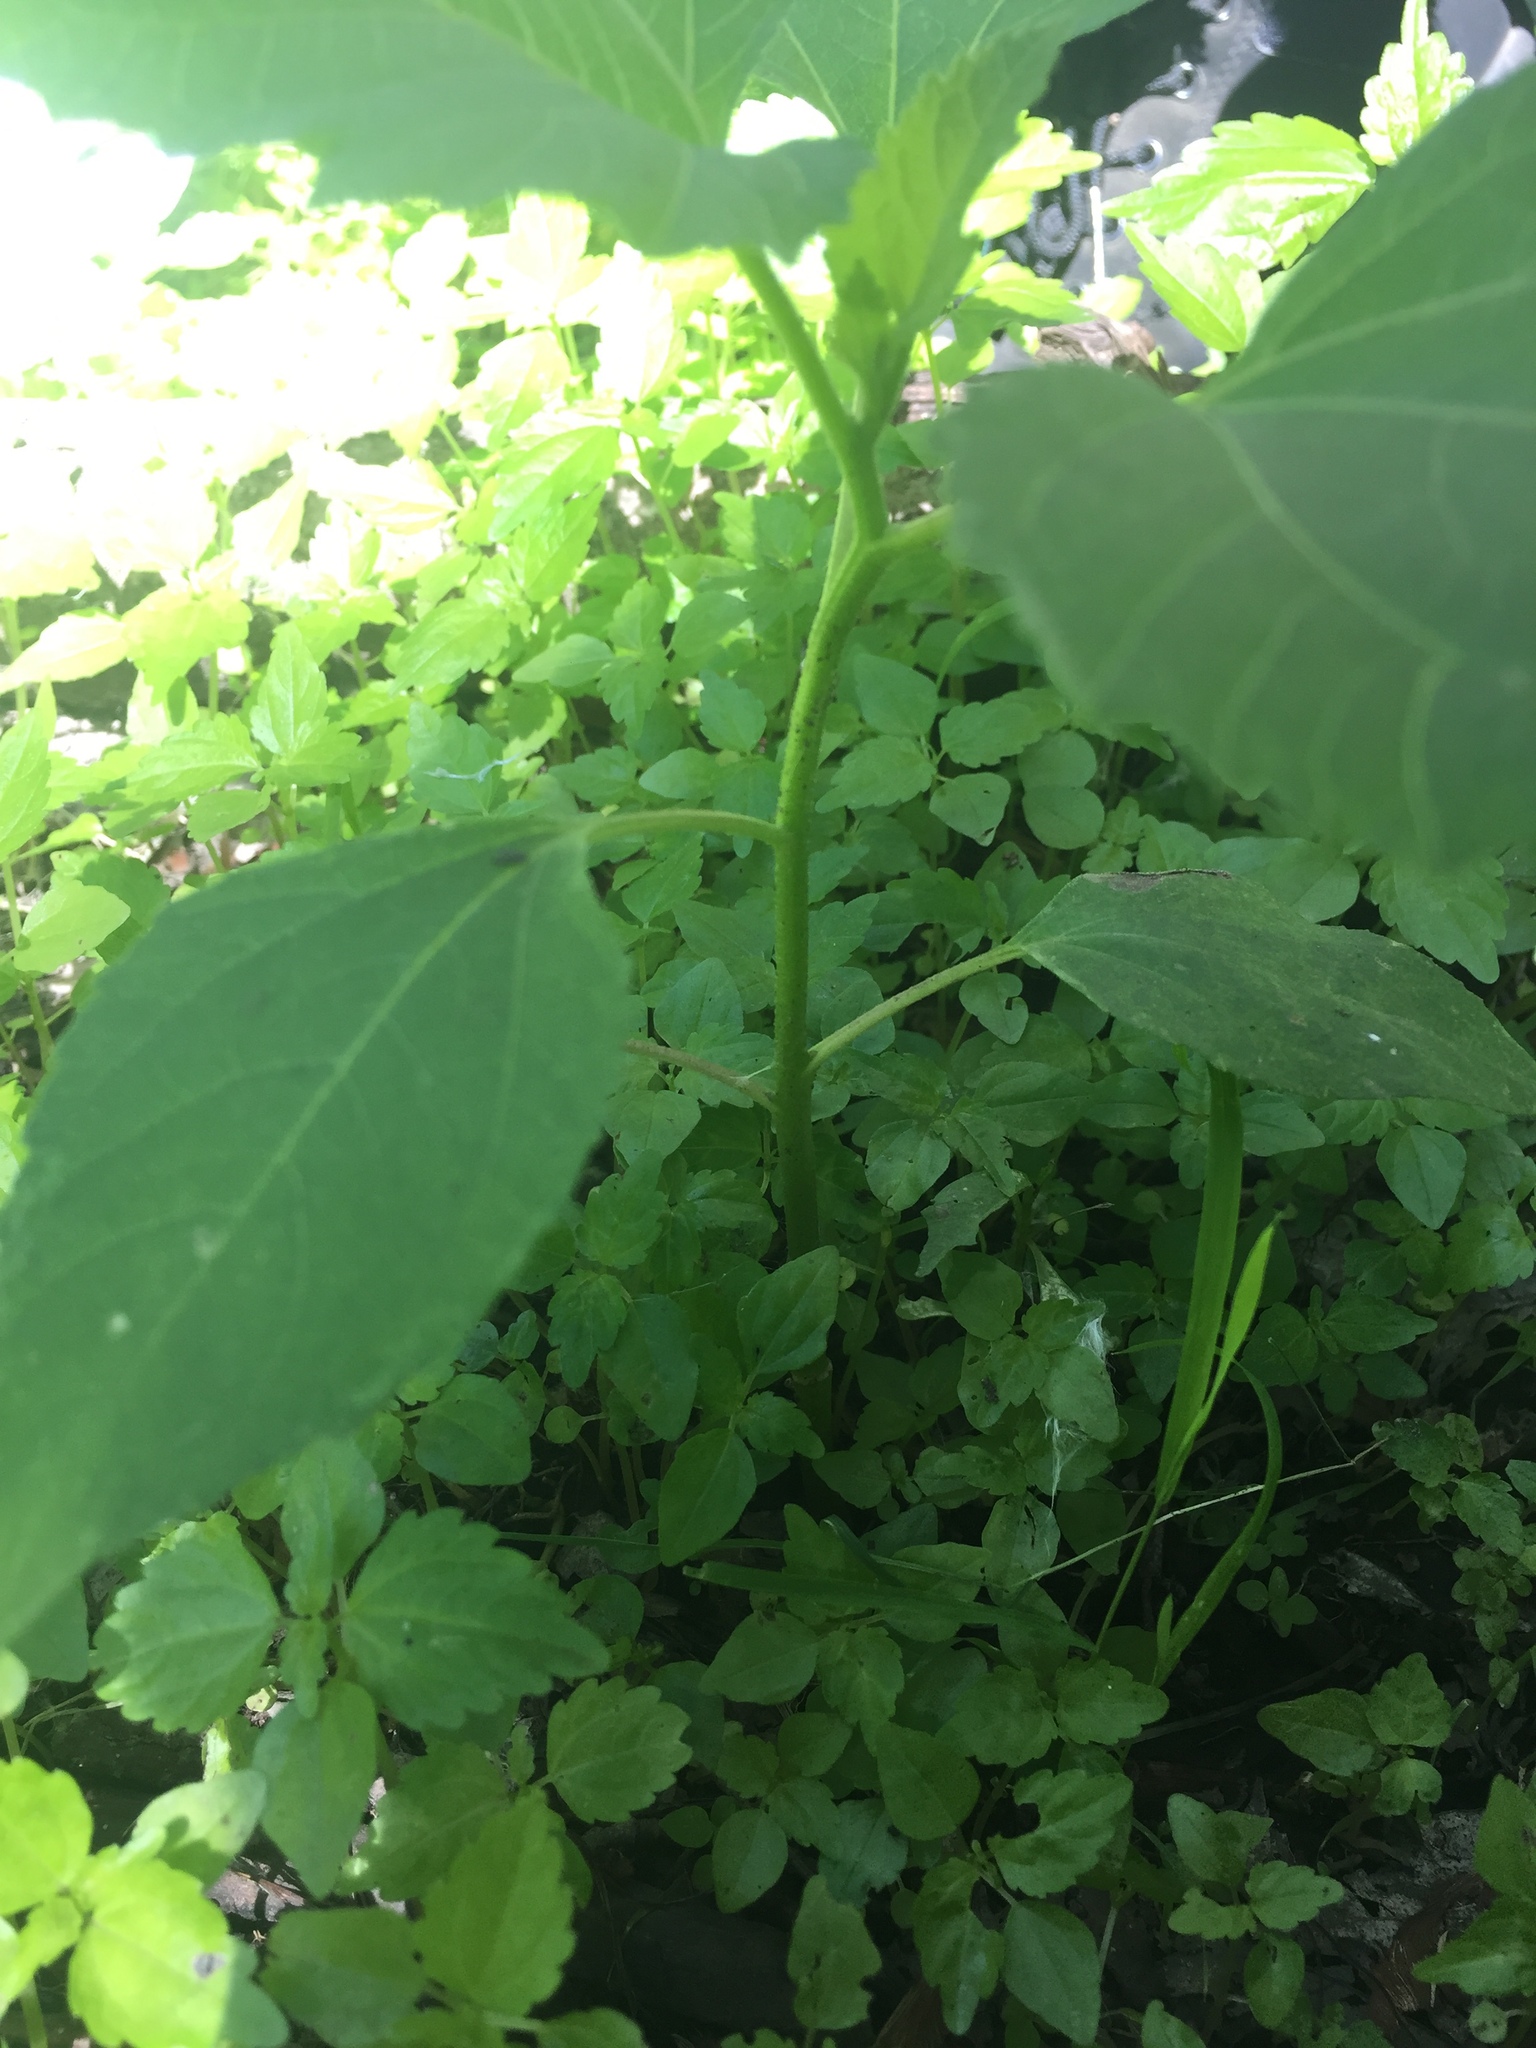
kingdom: Plantae
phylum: Tracheophyta
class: Magnoliopsida
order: Asterales
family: Asteraceae
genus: Xanthium
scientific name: Xanthium strumarium
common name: Rough cocklebur
